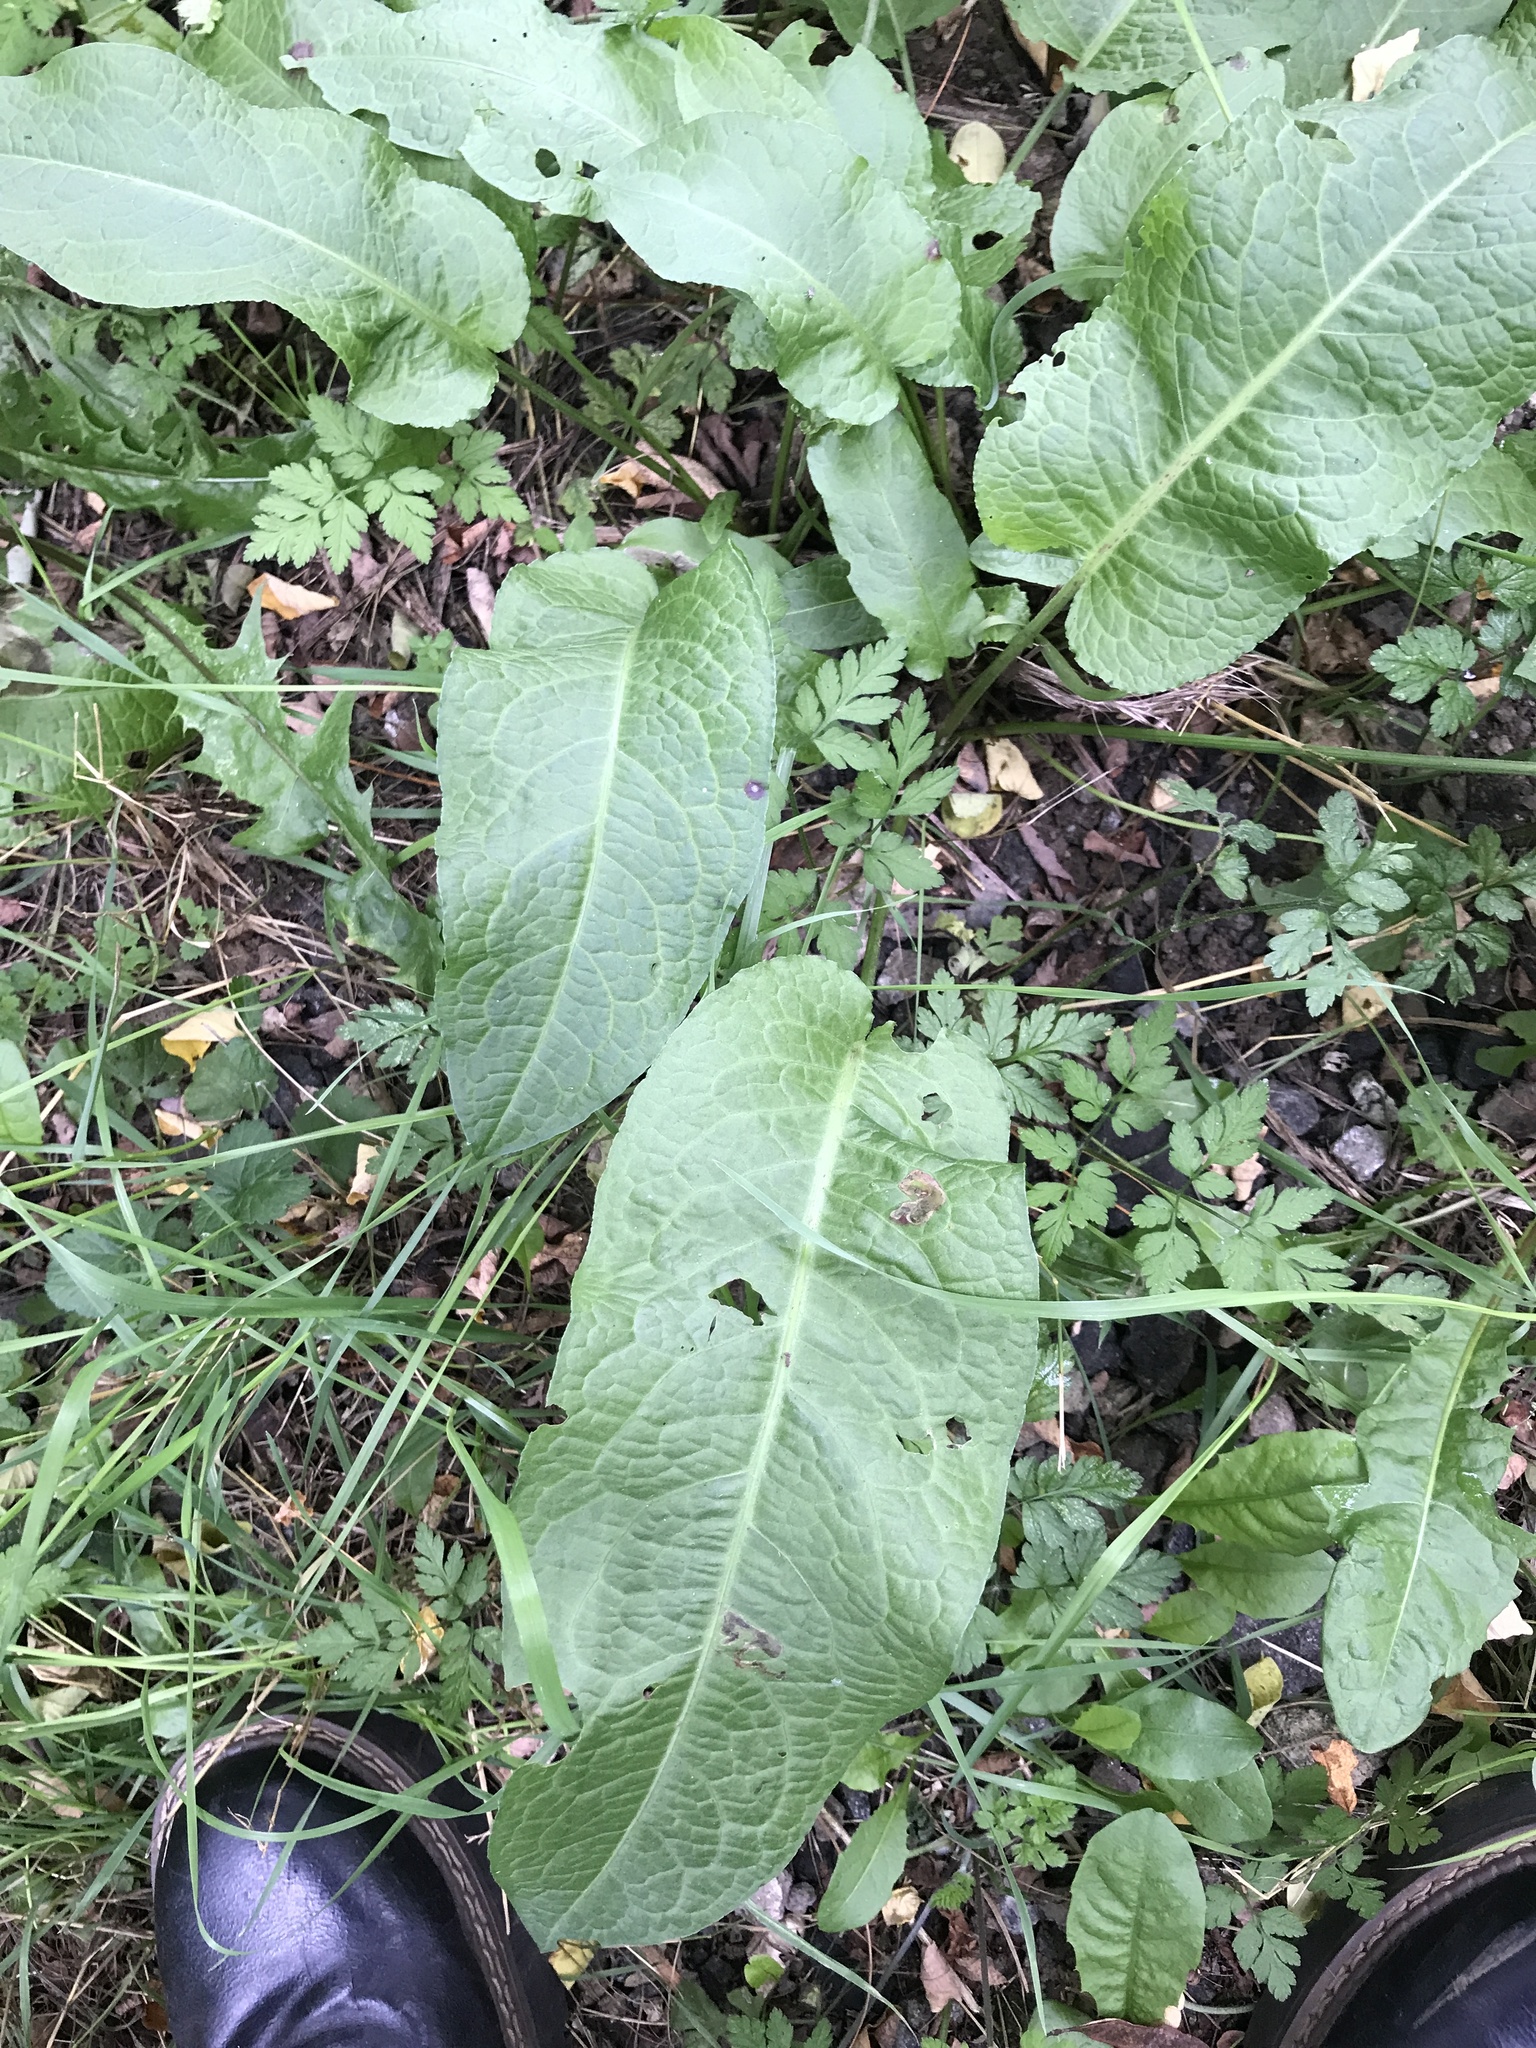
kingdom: Plantae
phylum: Tracheophyta
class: Magnoliopsida
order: Caryophyllales
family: Polygonaceae
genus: Rumex
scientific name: Rumex obtusifolius
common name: Bitter dock
